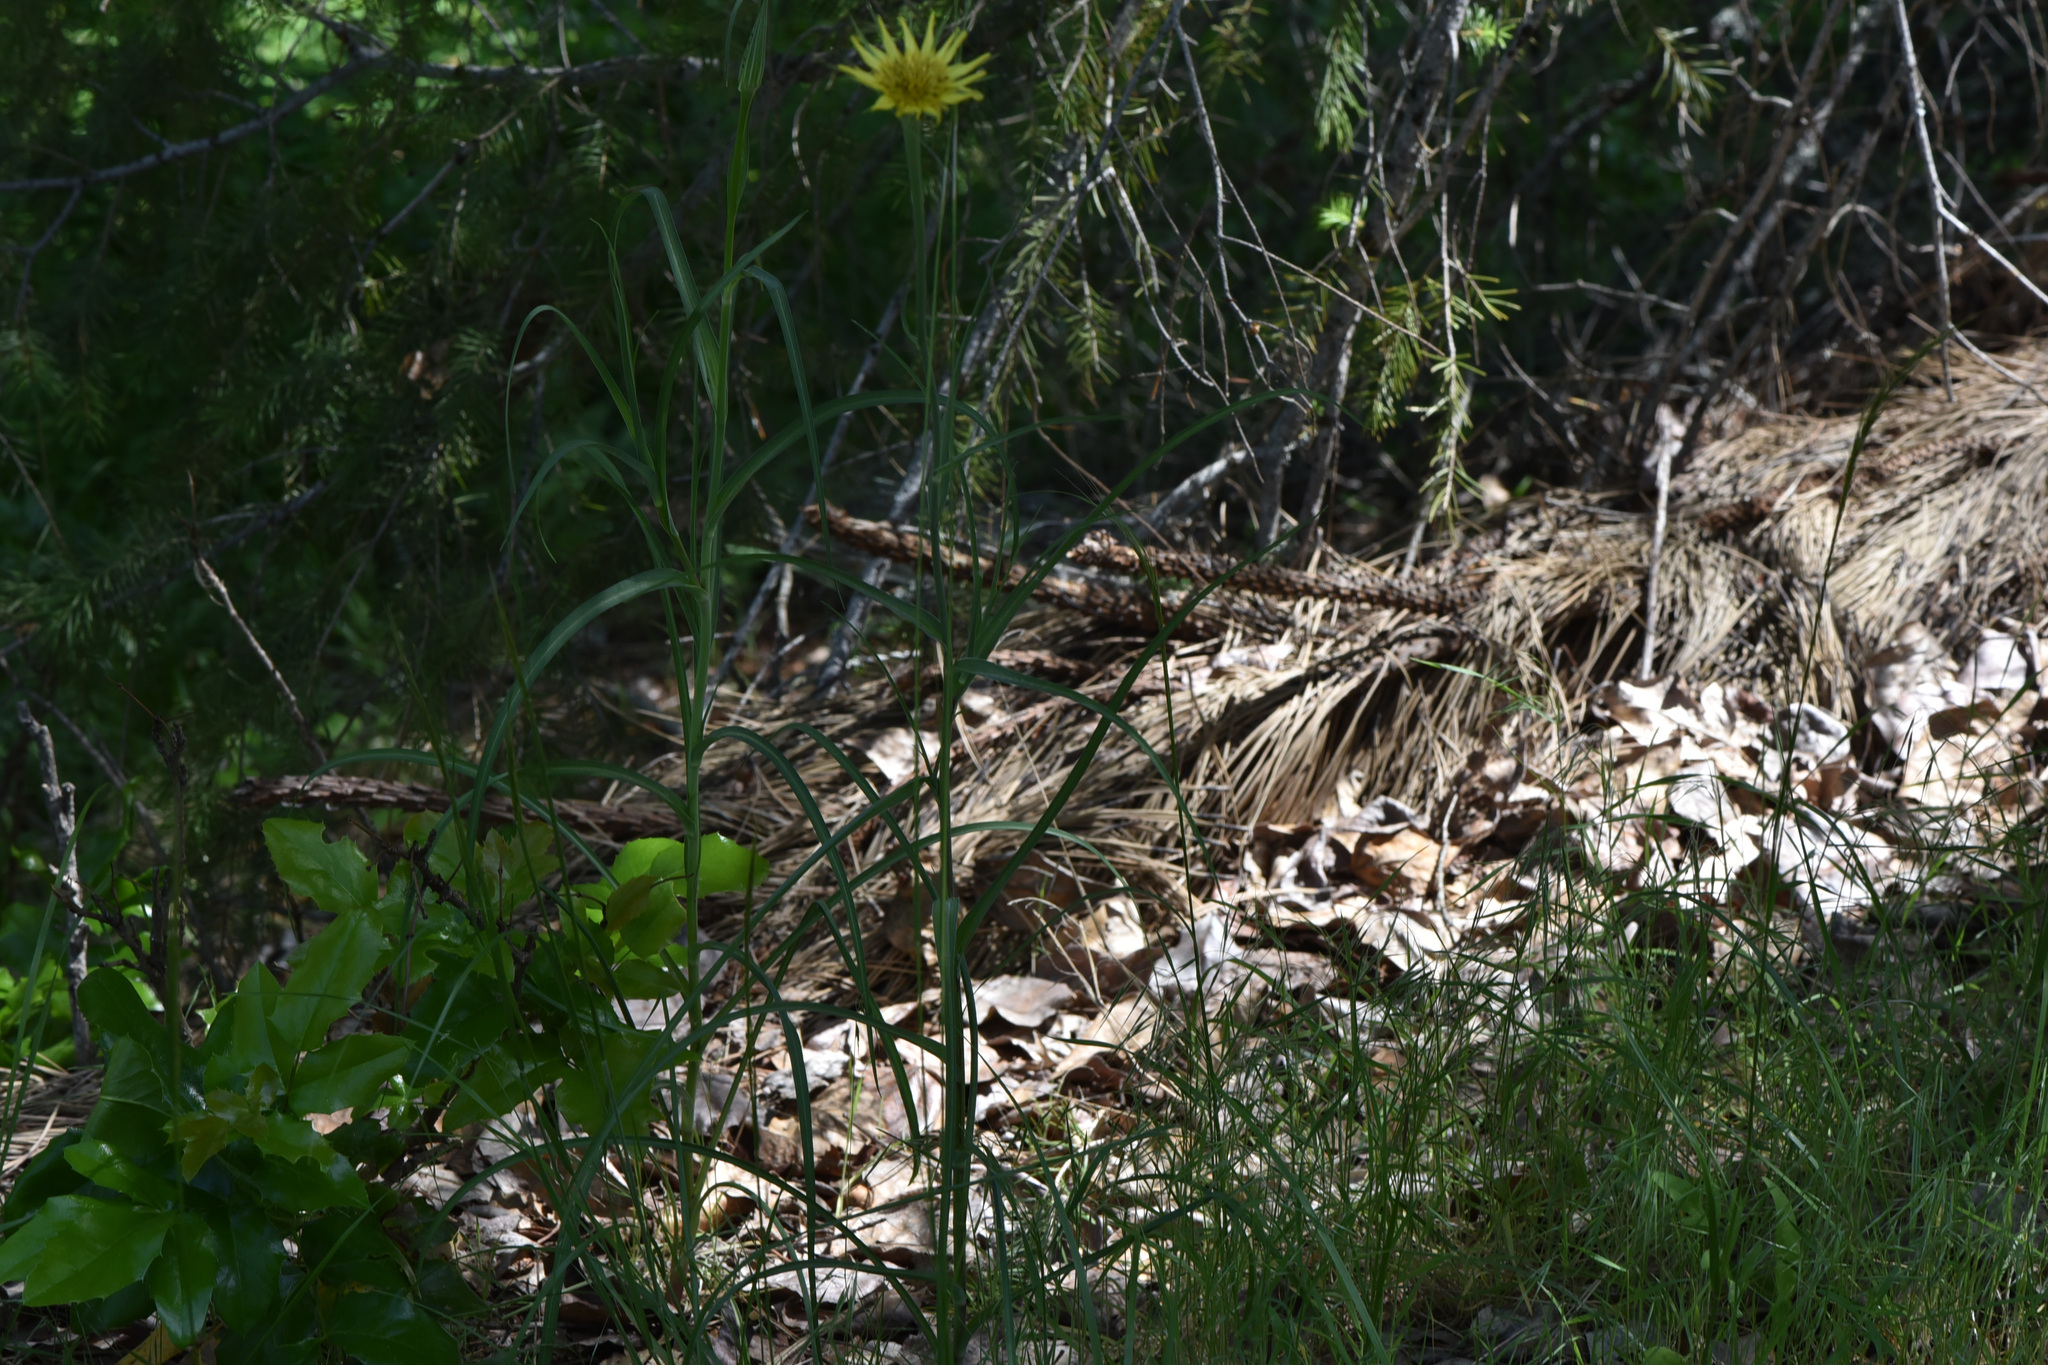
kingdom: Plantae
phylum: Tracheophyta
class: Magnoliopsida
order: Asterales
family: Asteraceae
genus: Tragopogon
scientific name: Tragopogon dubius
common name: Yellow salsify
